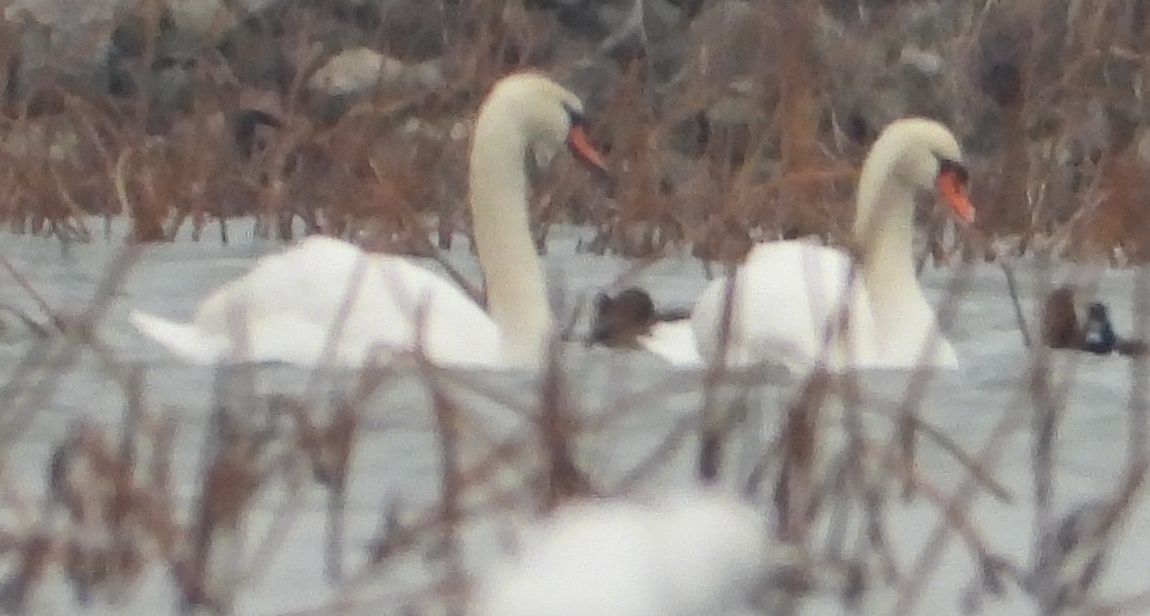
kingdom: Animalia
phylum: Chordata
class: Aves
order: Anseriformes
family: Anatidae
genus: Cygnus
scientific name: Cygnus olor
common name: Mute swan
